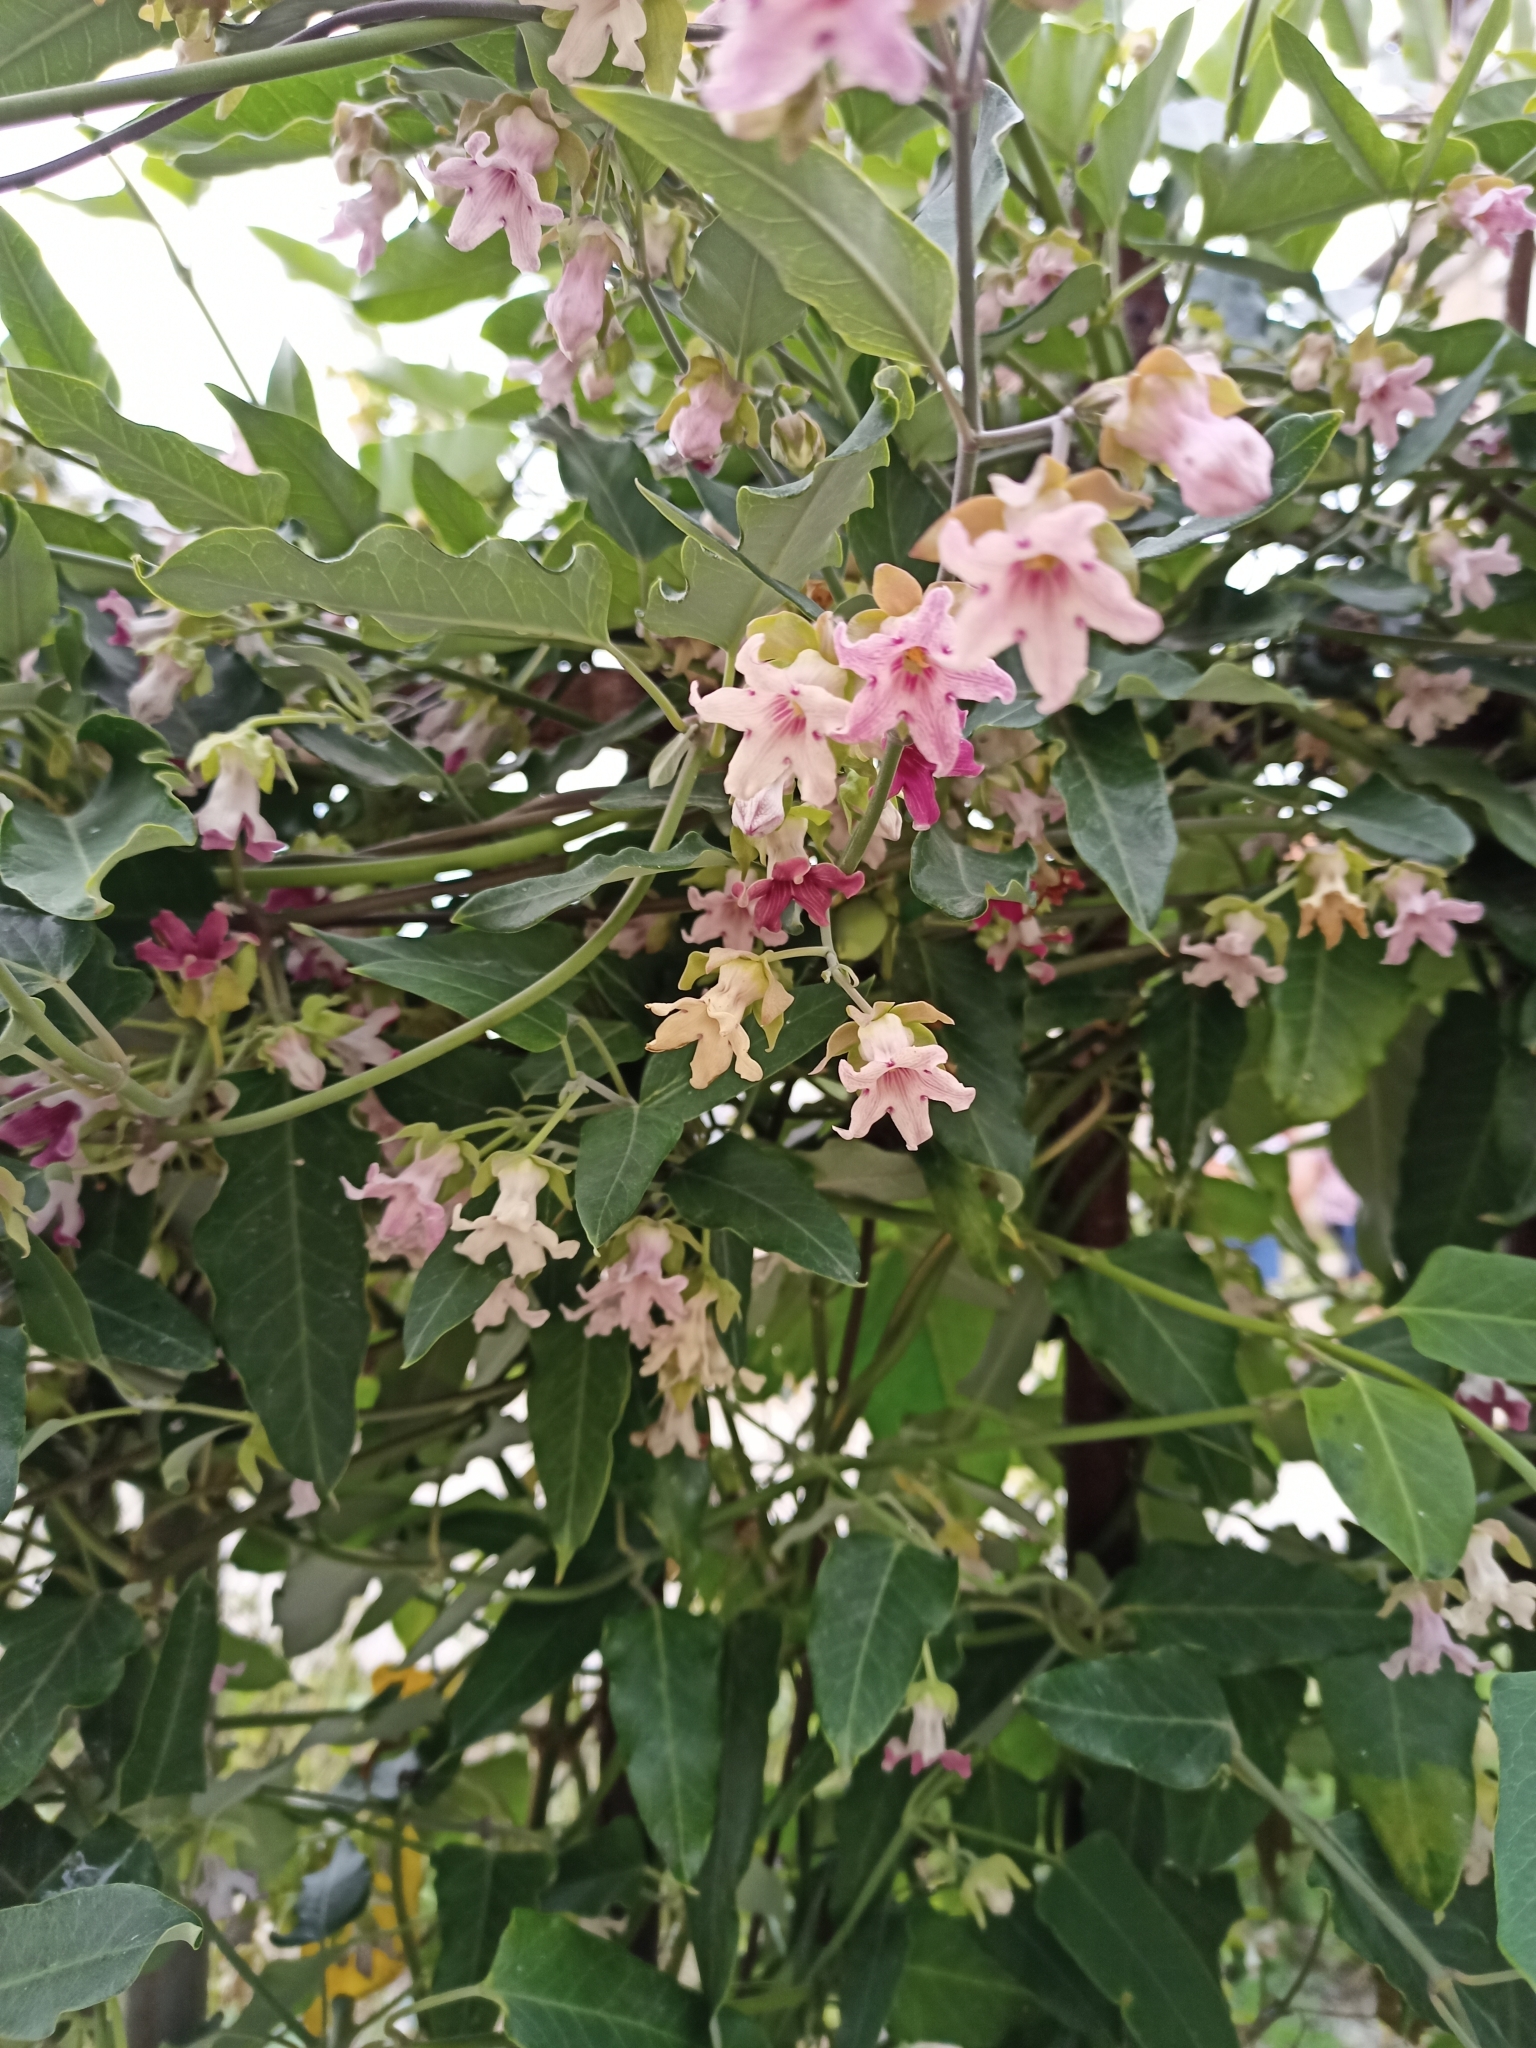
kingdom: Plantae
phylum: Tracheophyta
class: Magnoliopsida
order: Gentianales
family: Apocynaceae
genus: Araujia
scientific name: Araujia sericifera
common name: White bladderflower
